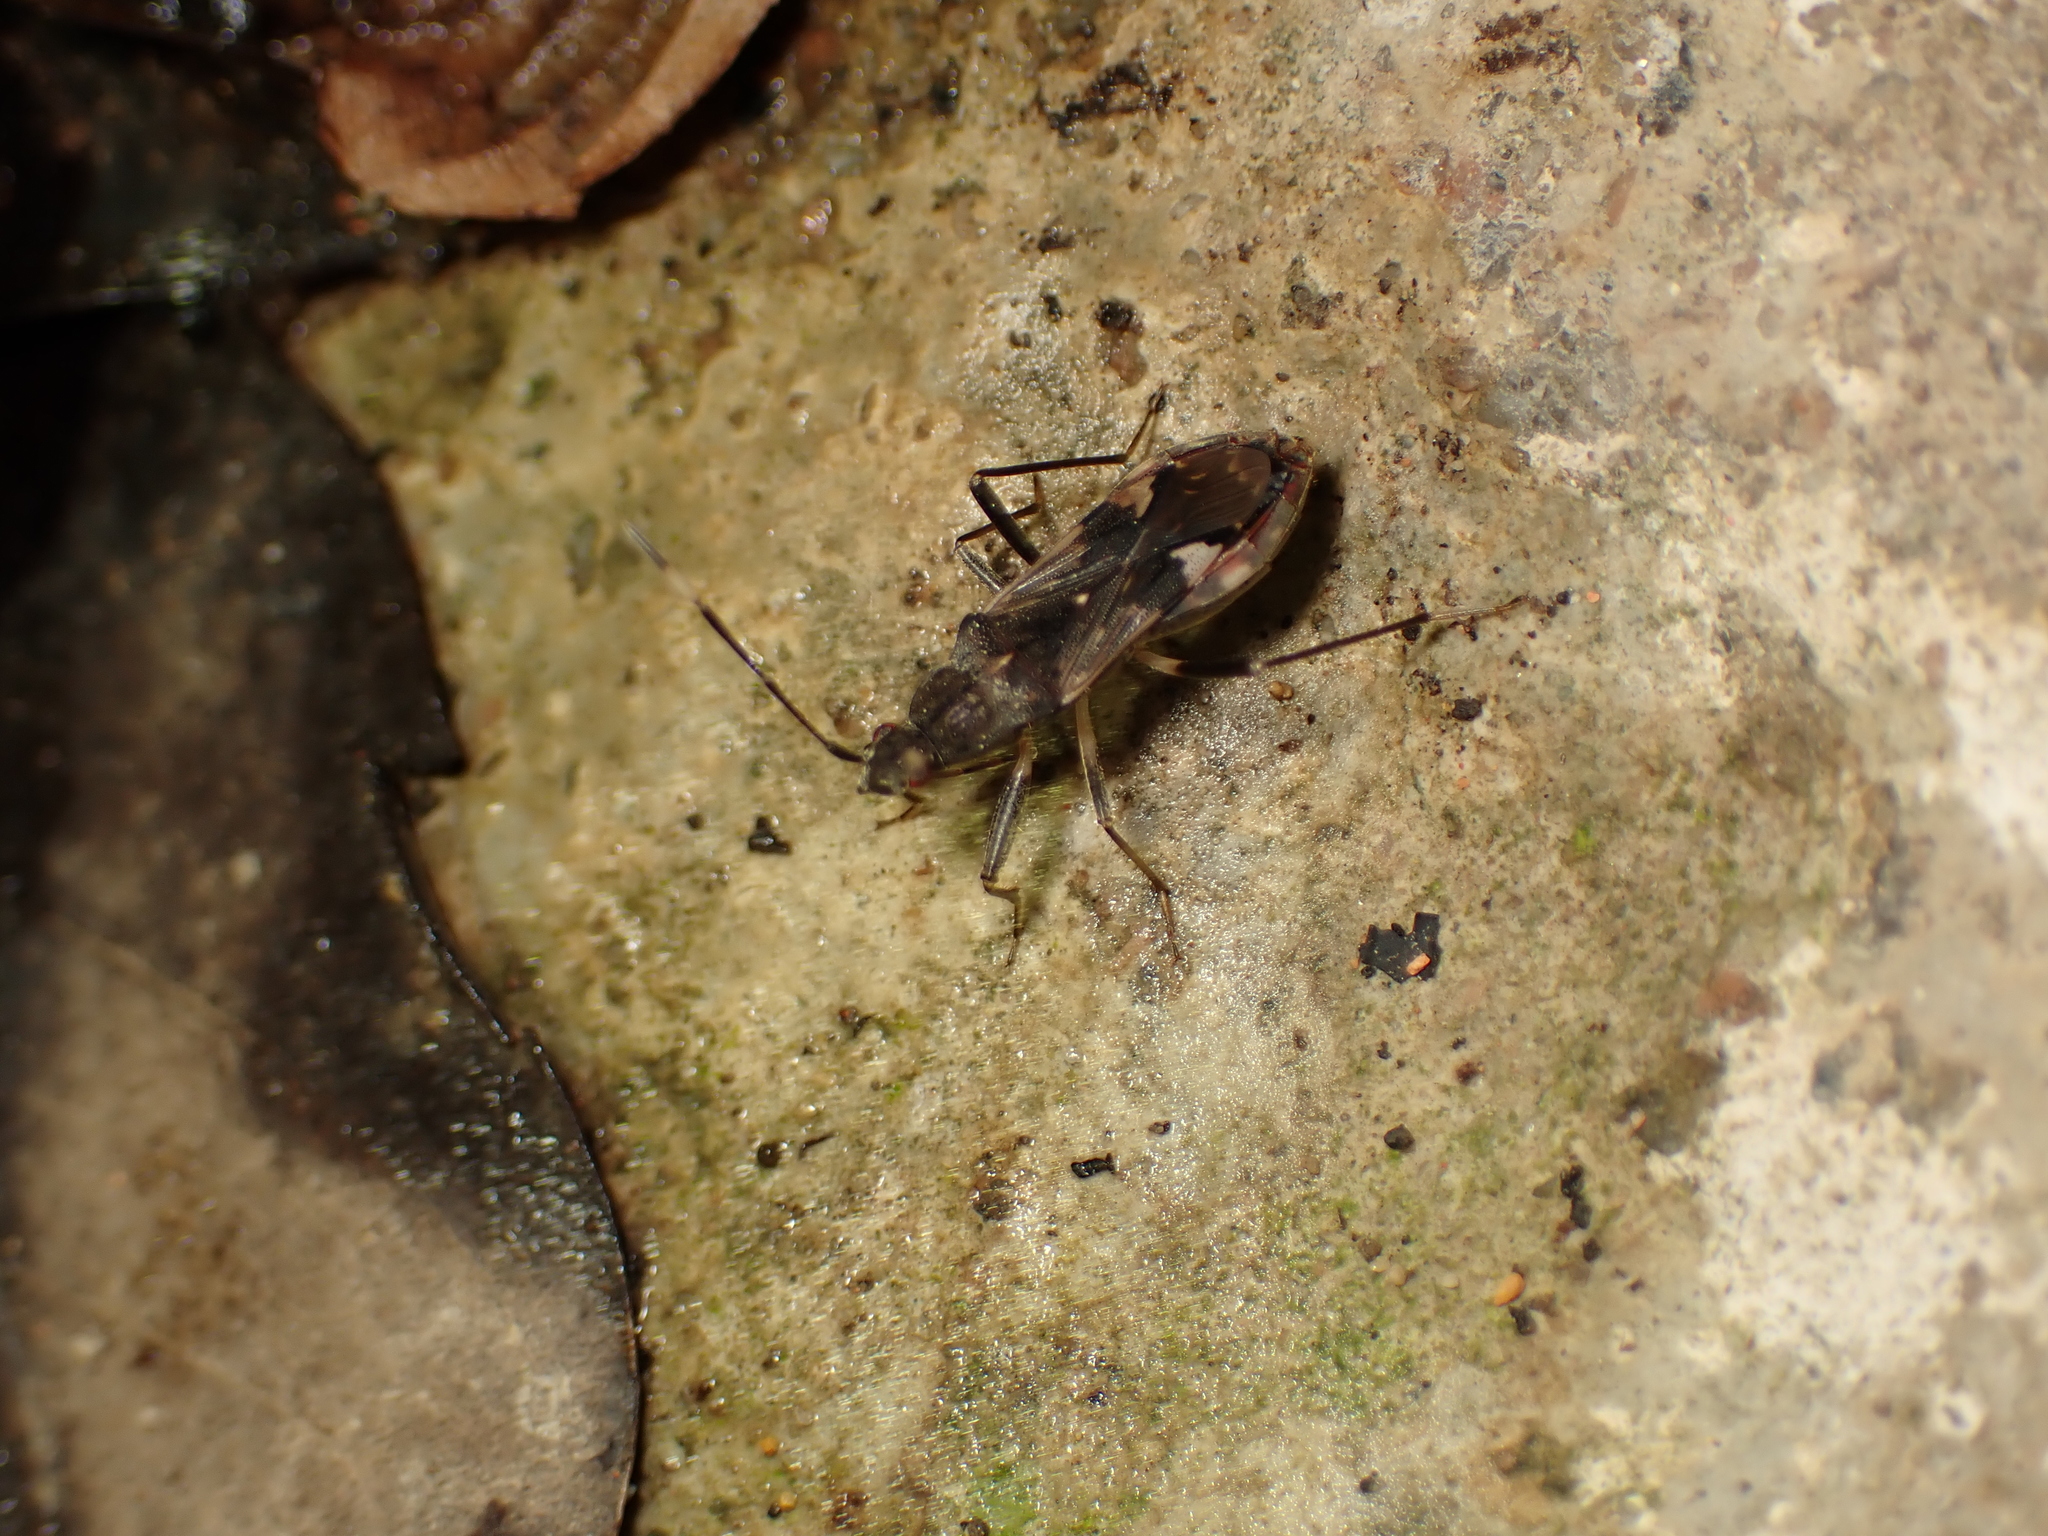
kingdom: Animalia
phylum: Arthropoda
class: Insecta
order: Hemiptera
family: Rhyparochromidae
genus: Metochus
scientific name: Metochus abbreviatus
